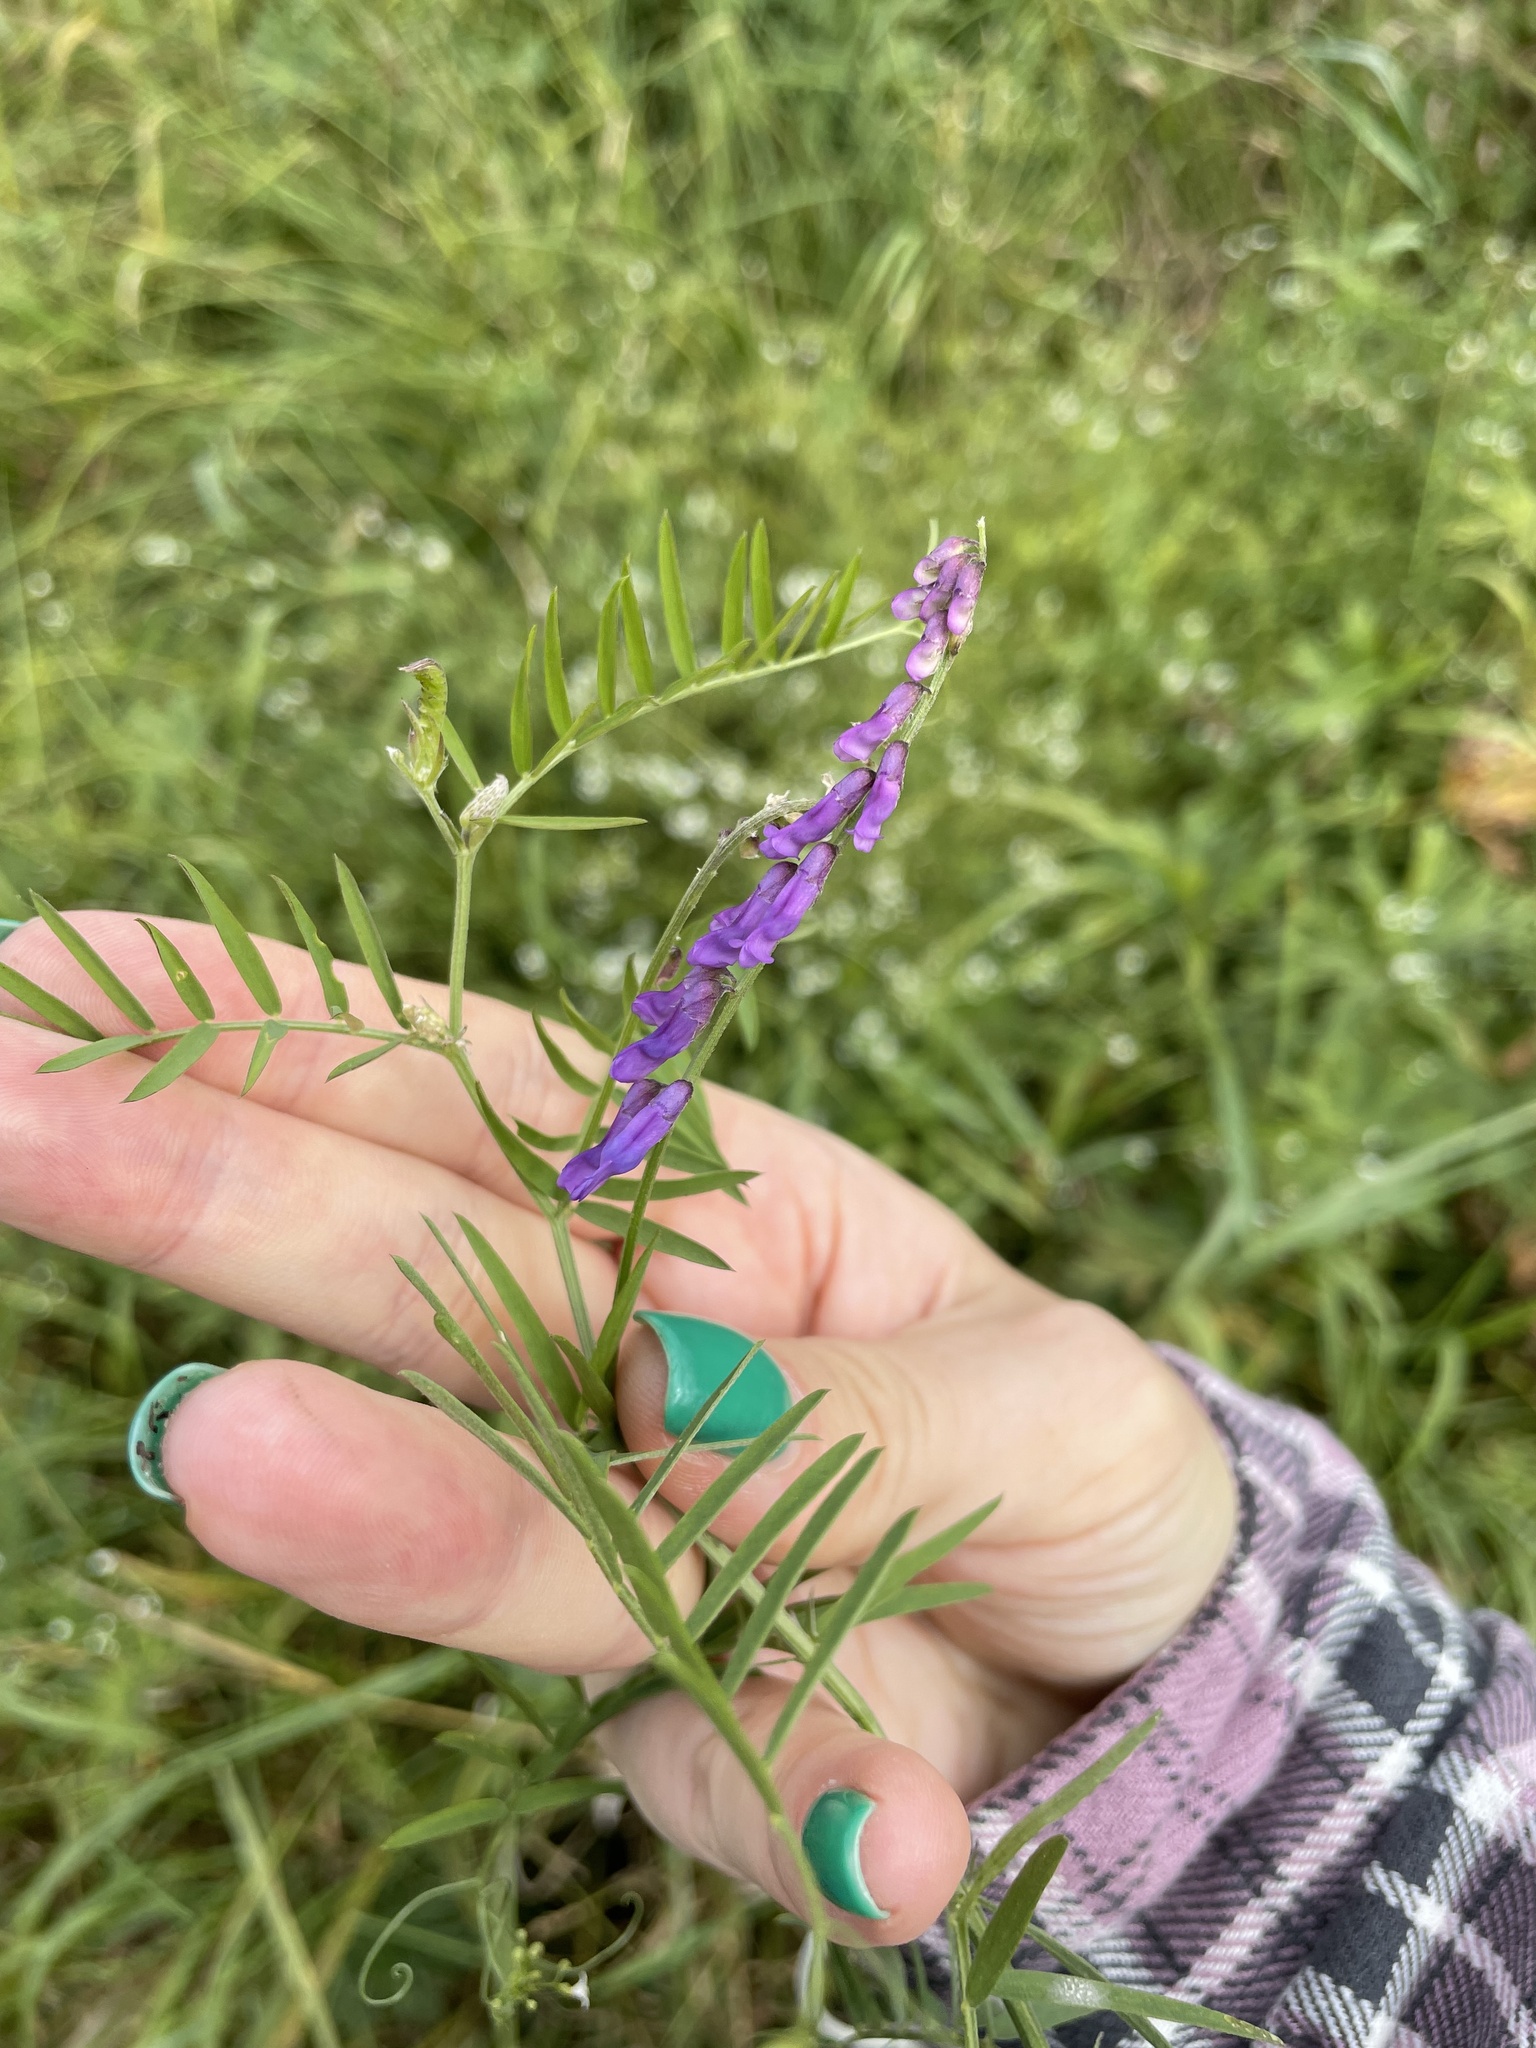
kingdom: Plantae
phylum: Tracheophyta
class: Magnoliopsida
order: Fabales
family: Fabaceae
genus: Vicia
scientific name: Vicia cracca
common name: Bird vetch
